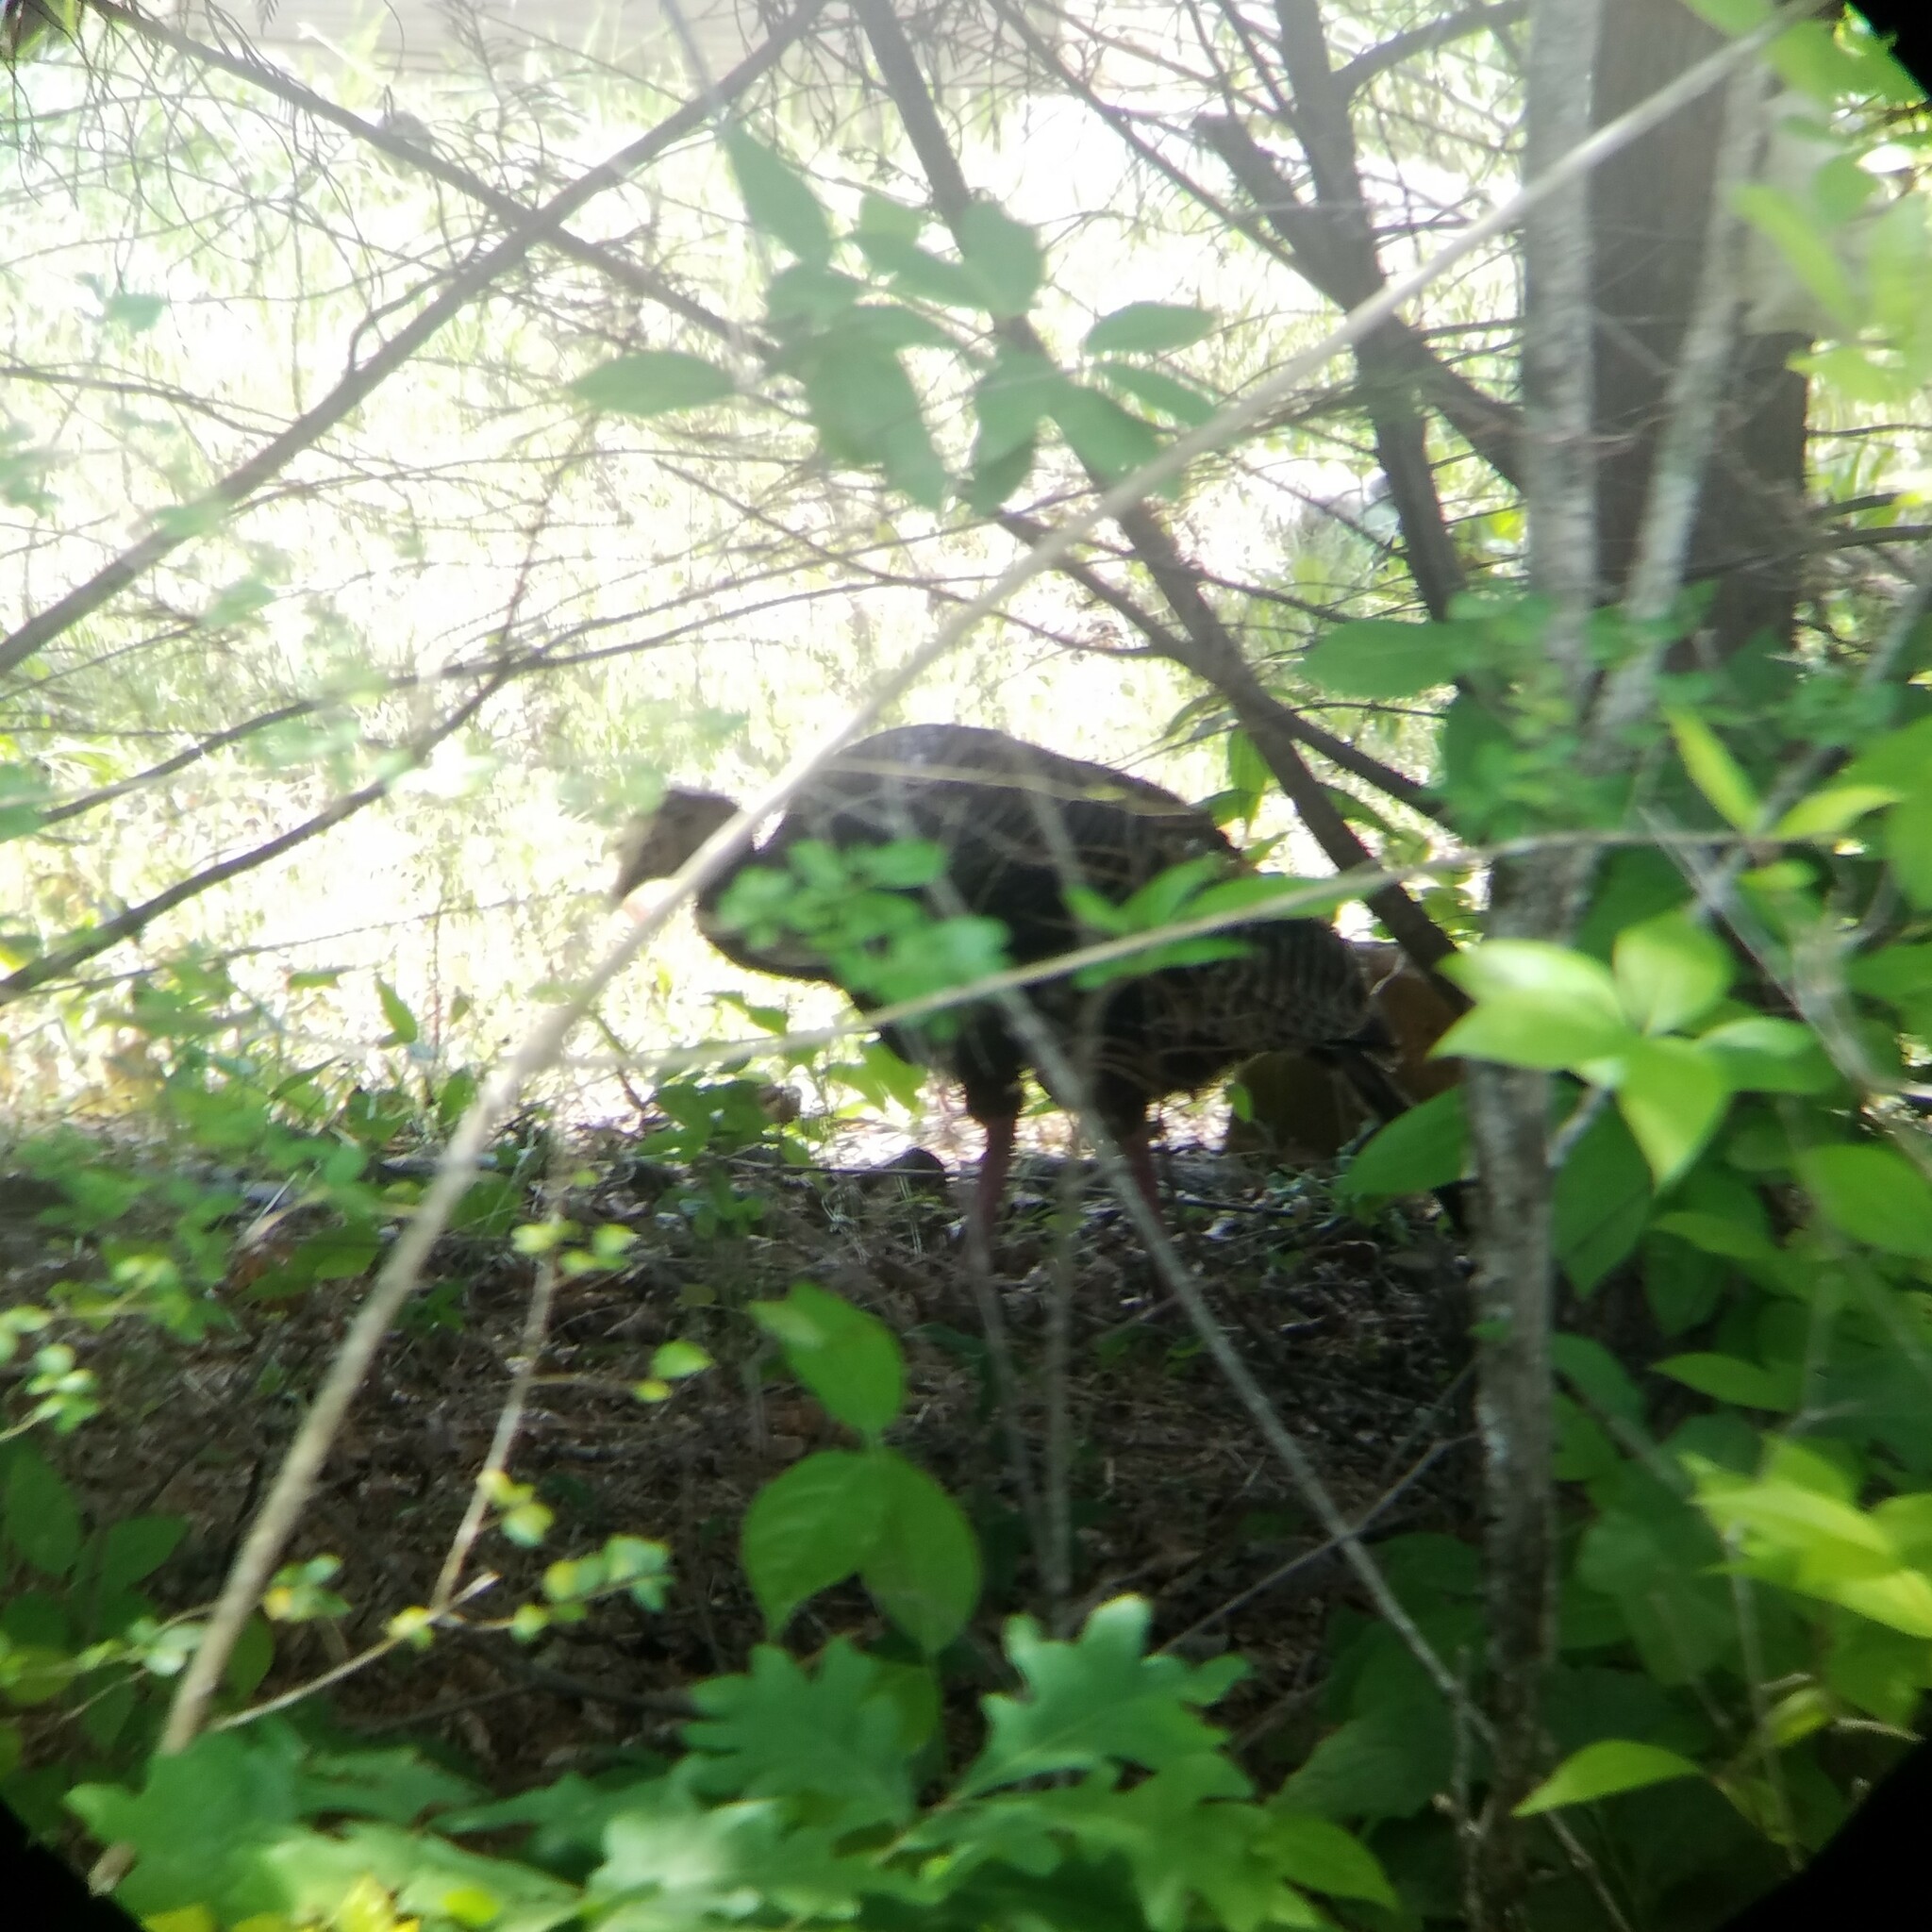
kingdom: Animalia
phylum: Chordata
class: Aves
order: Galliformes
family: Phasianidae
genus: Meleagris
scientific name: Meleagris gallopavo
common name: Wild turkey
